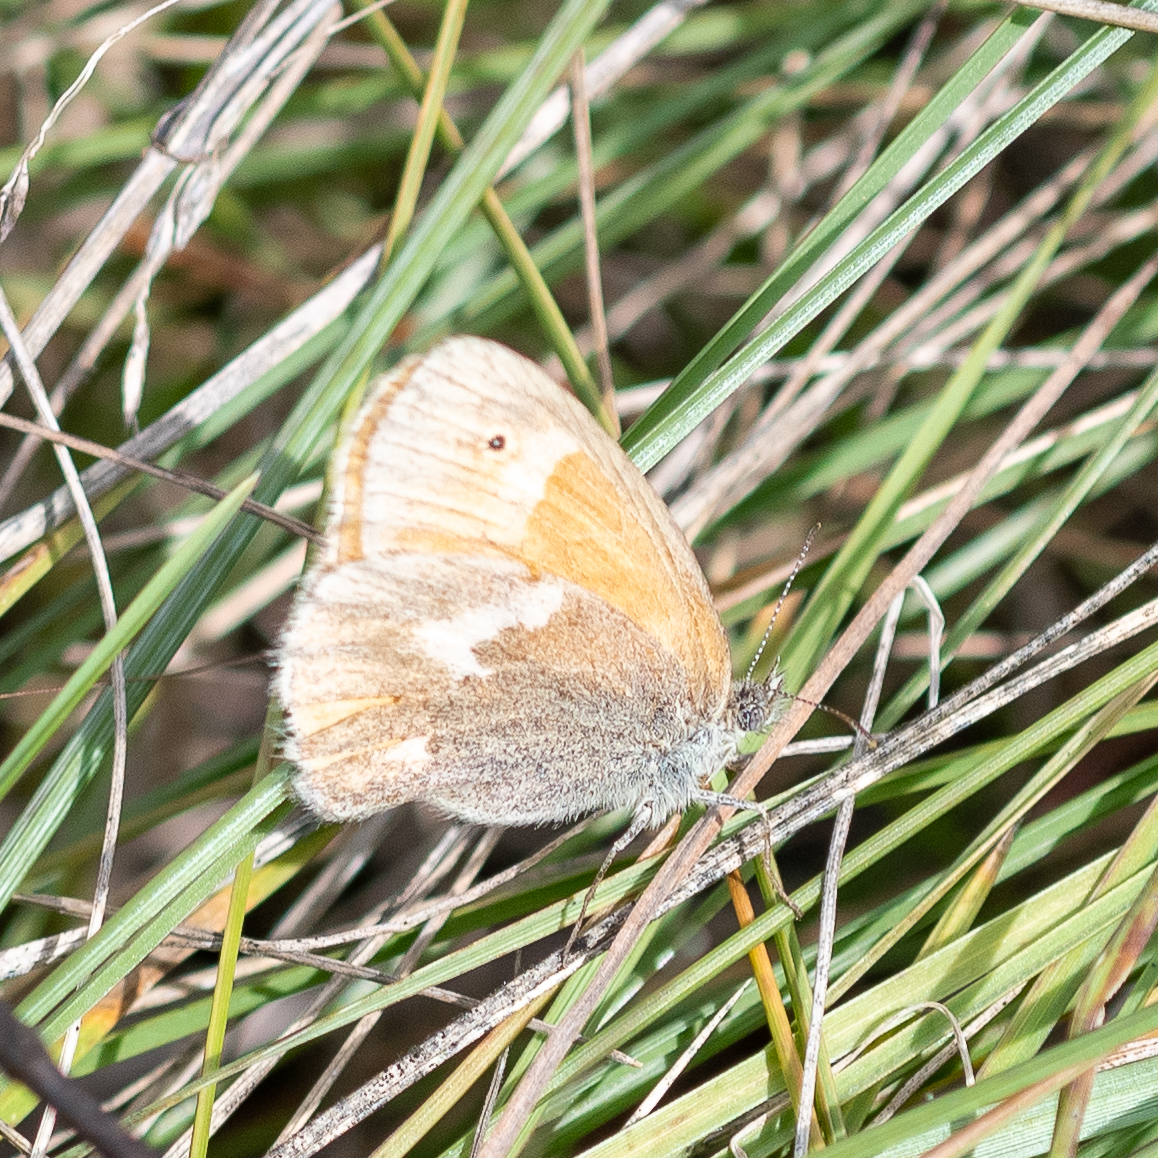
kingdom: Animalia
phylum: Arthropoda
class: Insecta
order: Lepidoptera
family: Nymphalidae
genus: Coenonympha
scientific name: Coenonympha california
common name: Common ringlet
